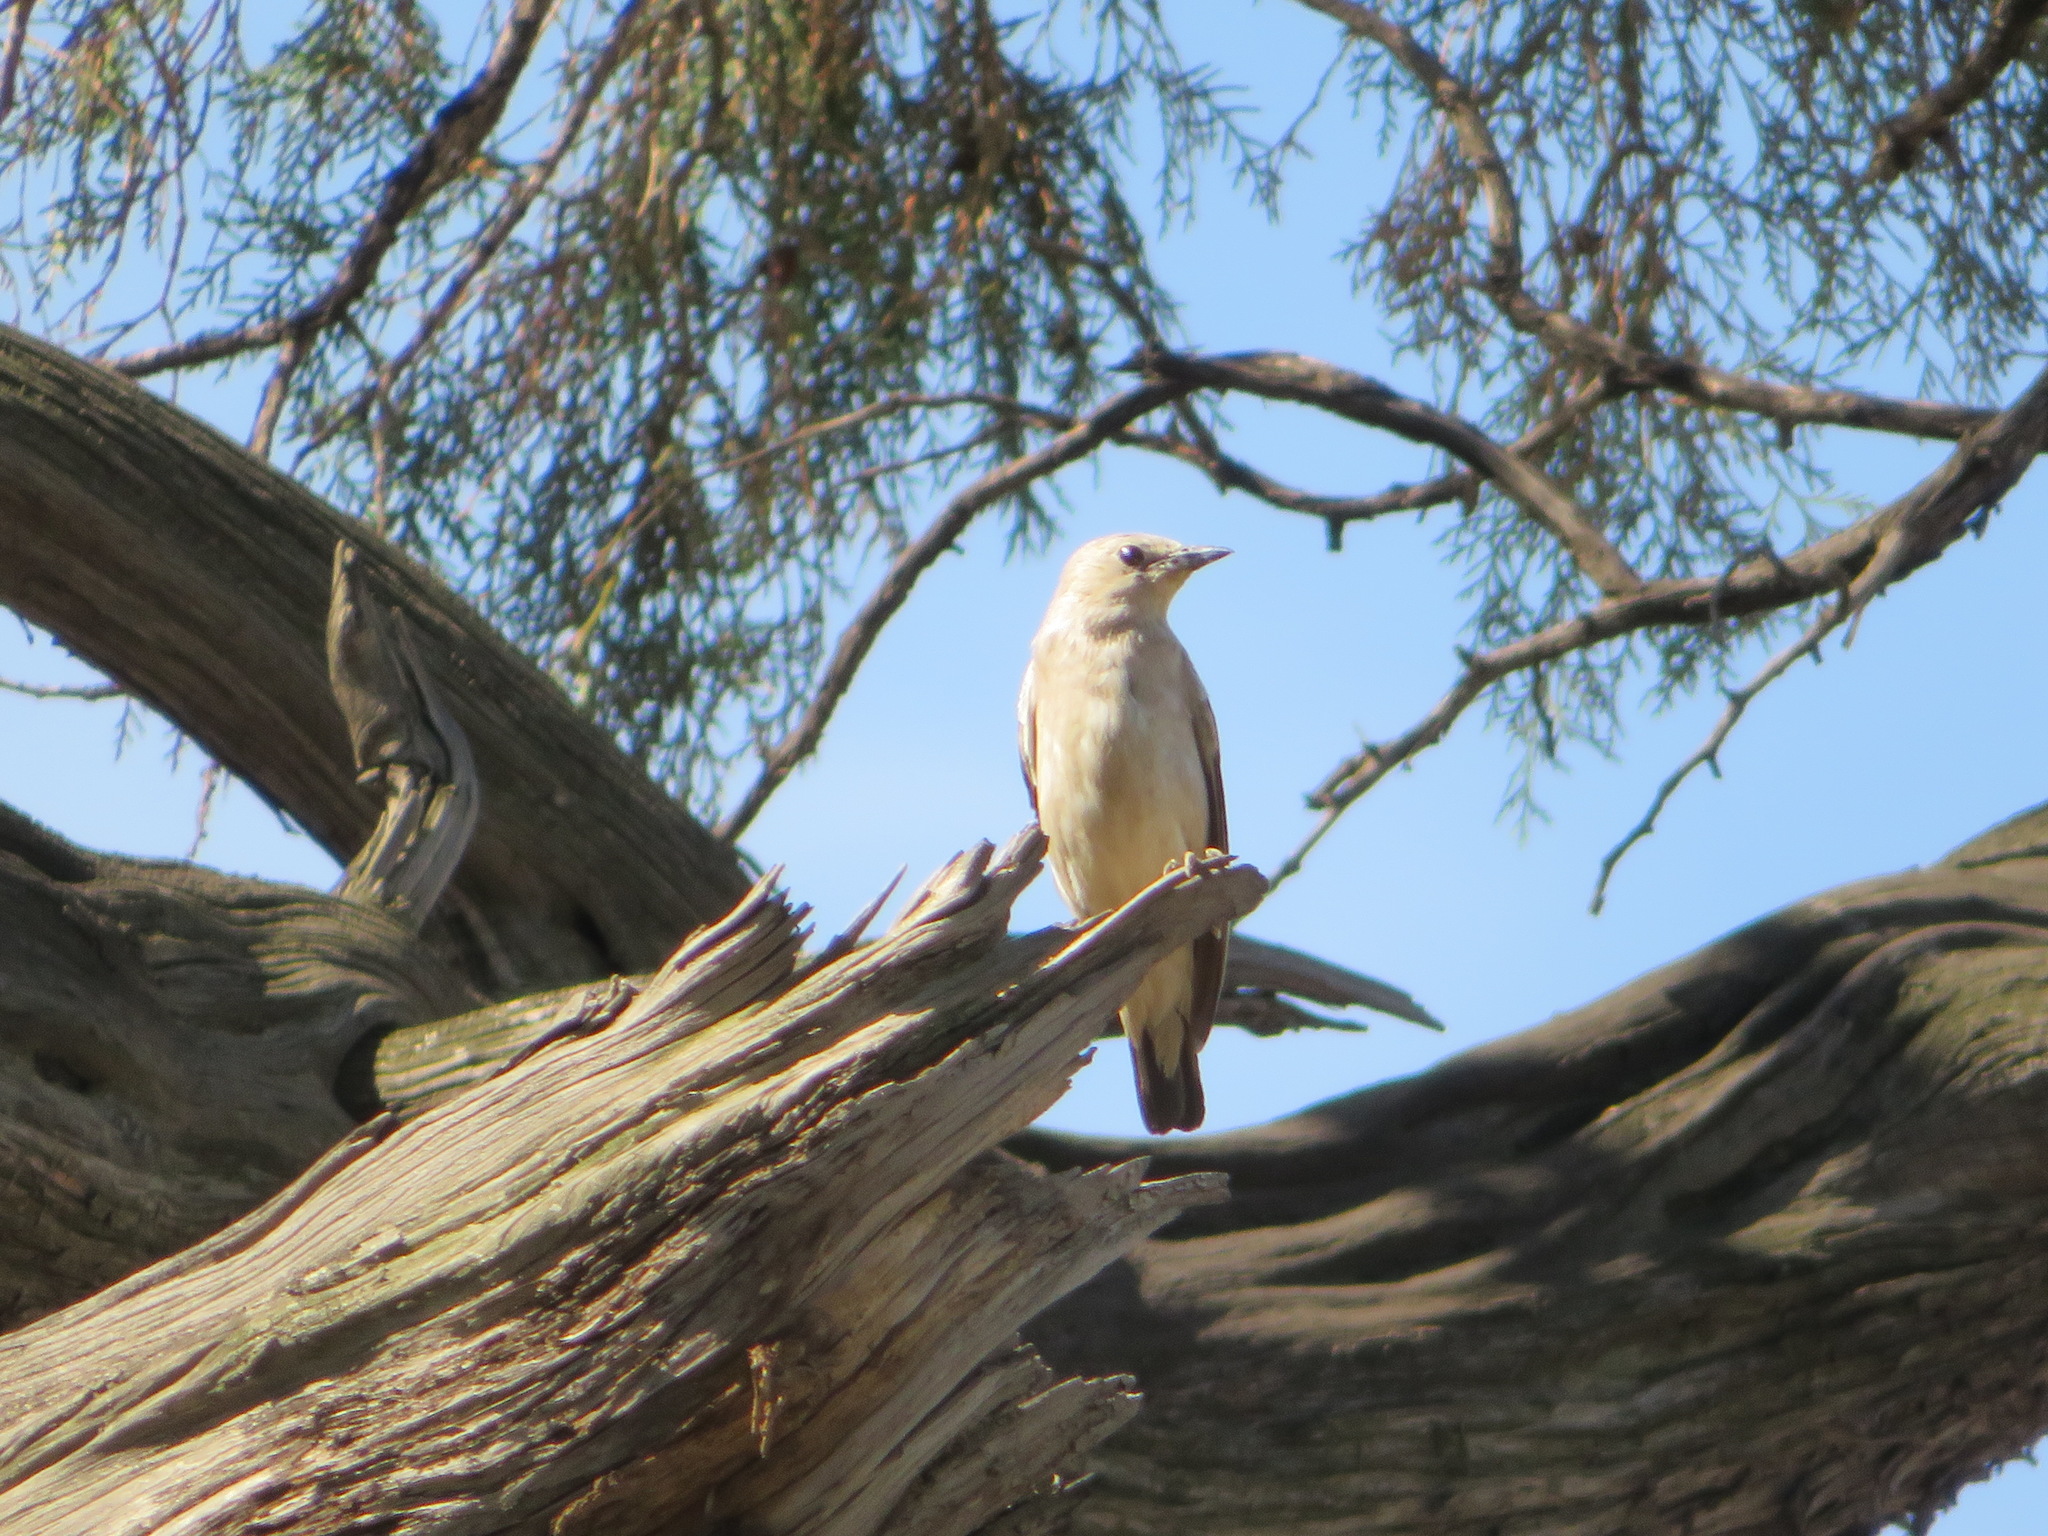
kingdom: Animalia
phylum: Chordata
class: Aves
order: Passeriformes
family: Sturnidae
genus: Agropsar
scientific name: Agropsar sturninus
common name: Daurian starling
